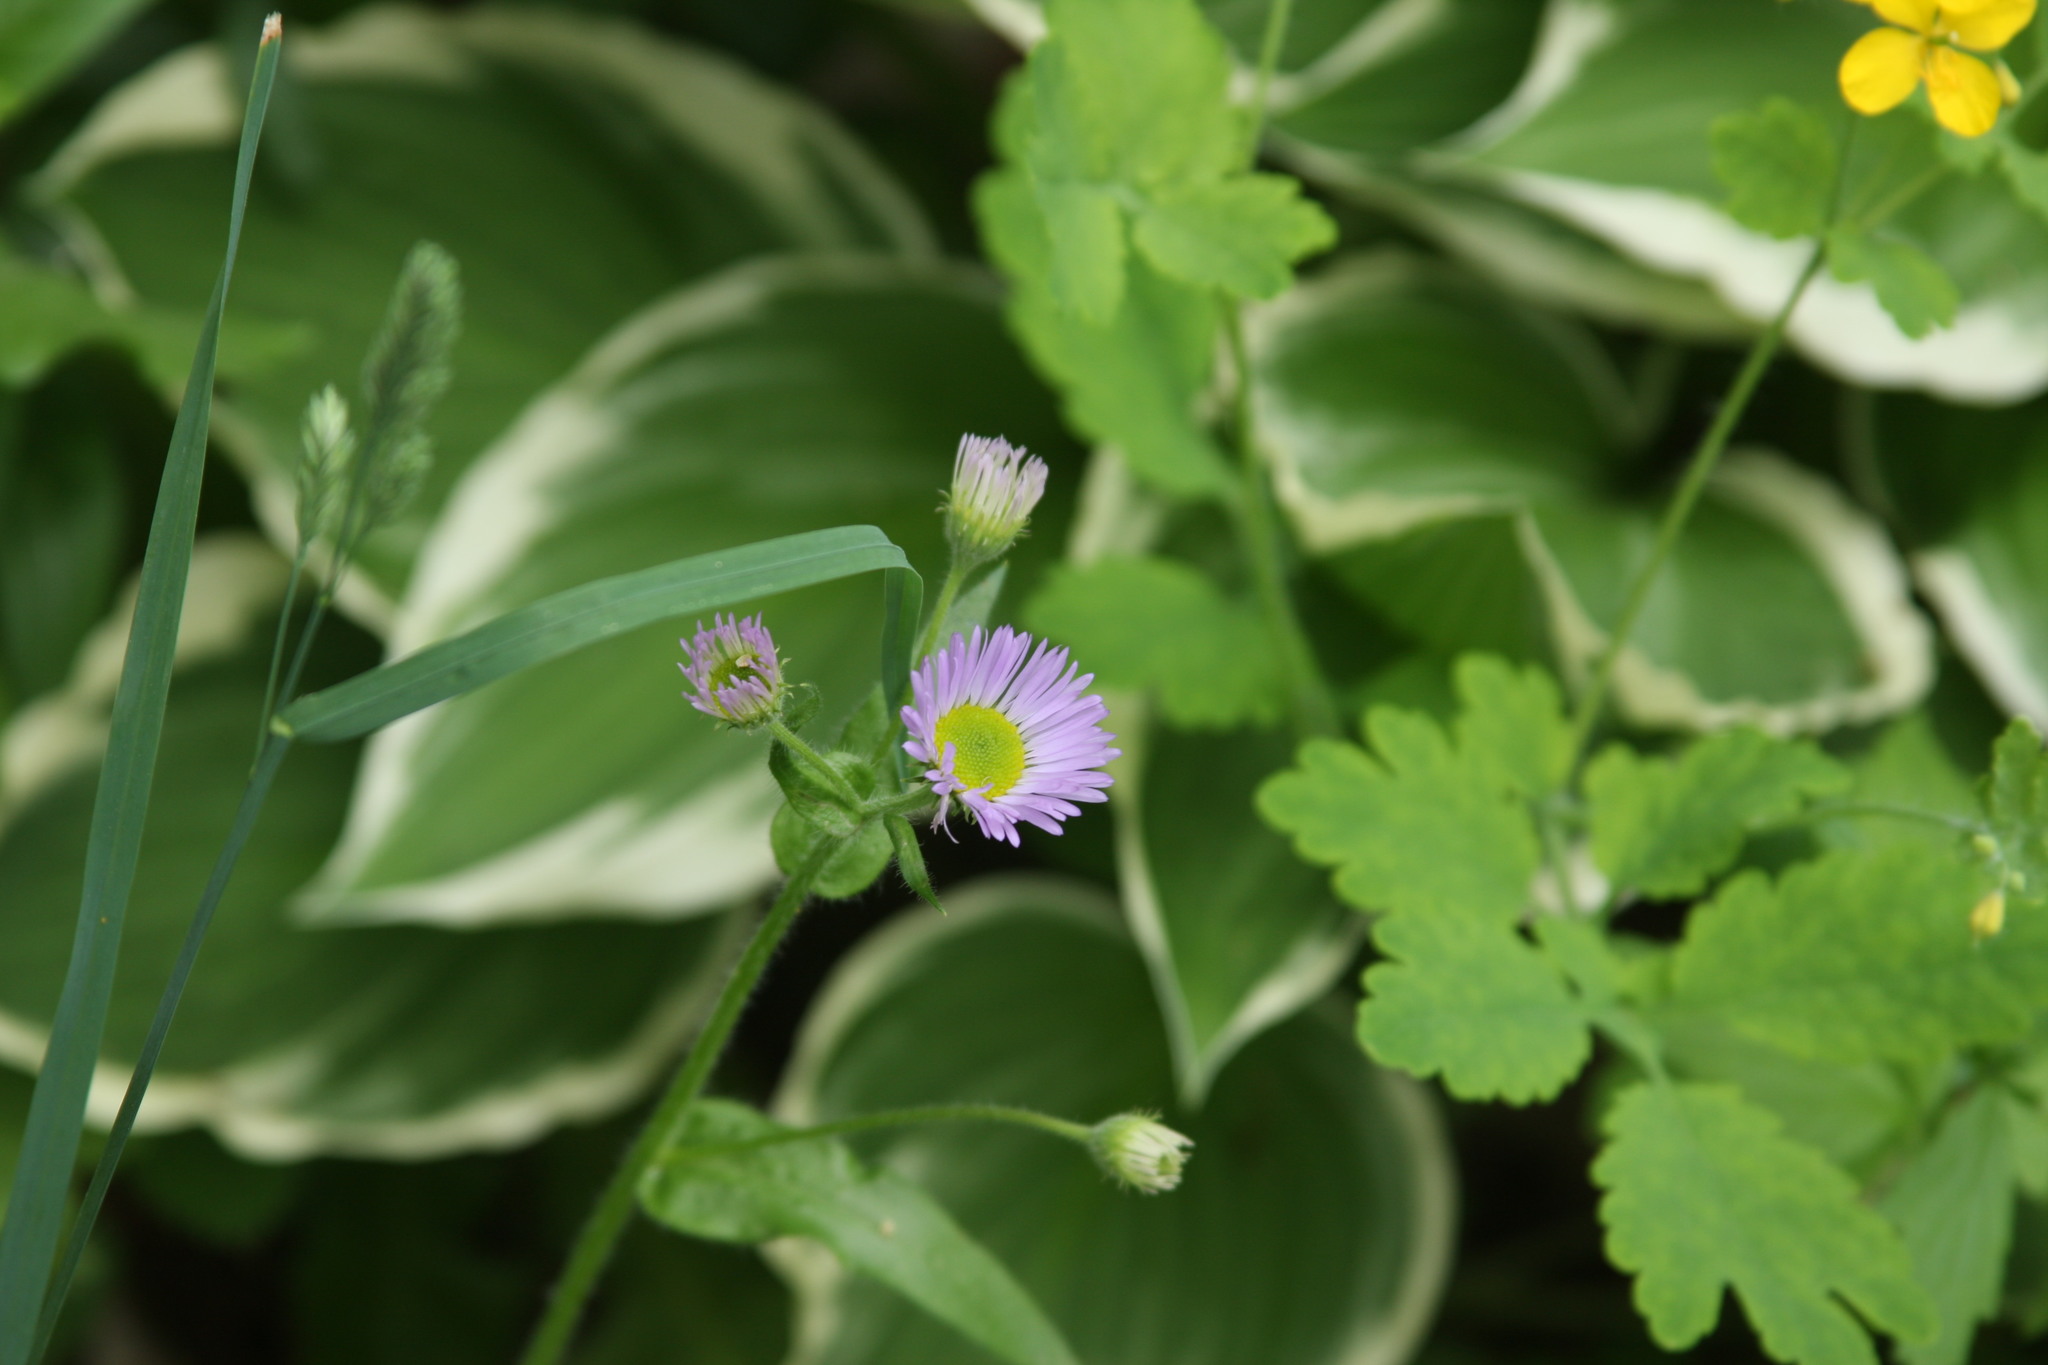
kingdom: Plantae
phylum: Tracheophyta
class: Magnoliopsida
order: Asterales
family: Asteraceae
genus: Erigeron
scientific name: Erigeron pulchellus
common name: Hairy fleabane
